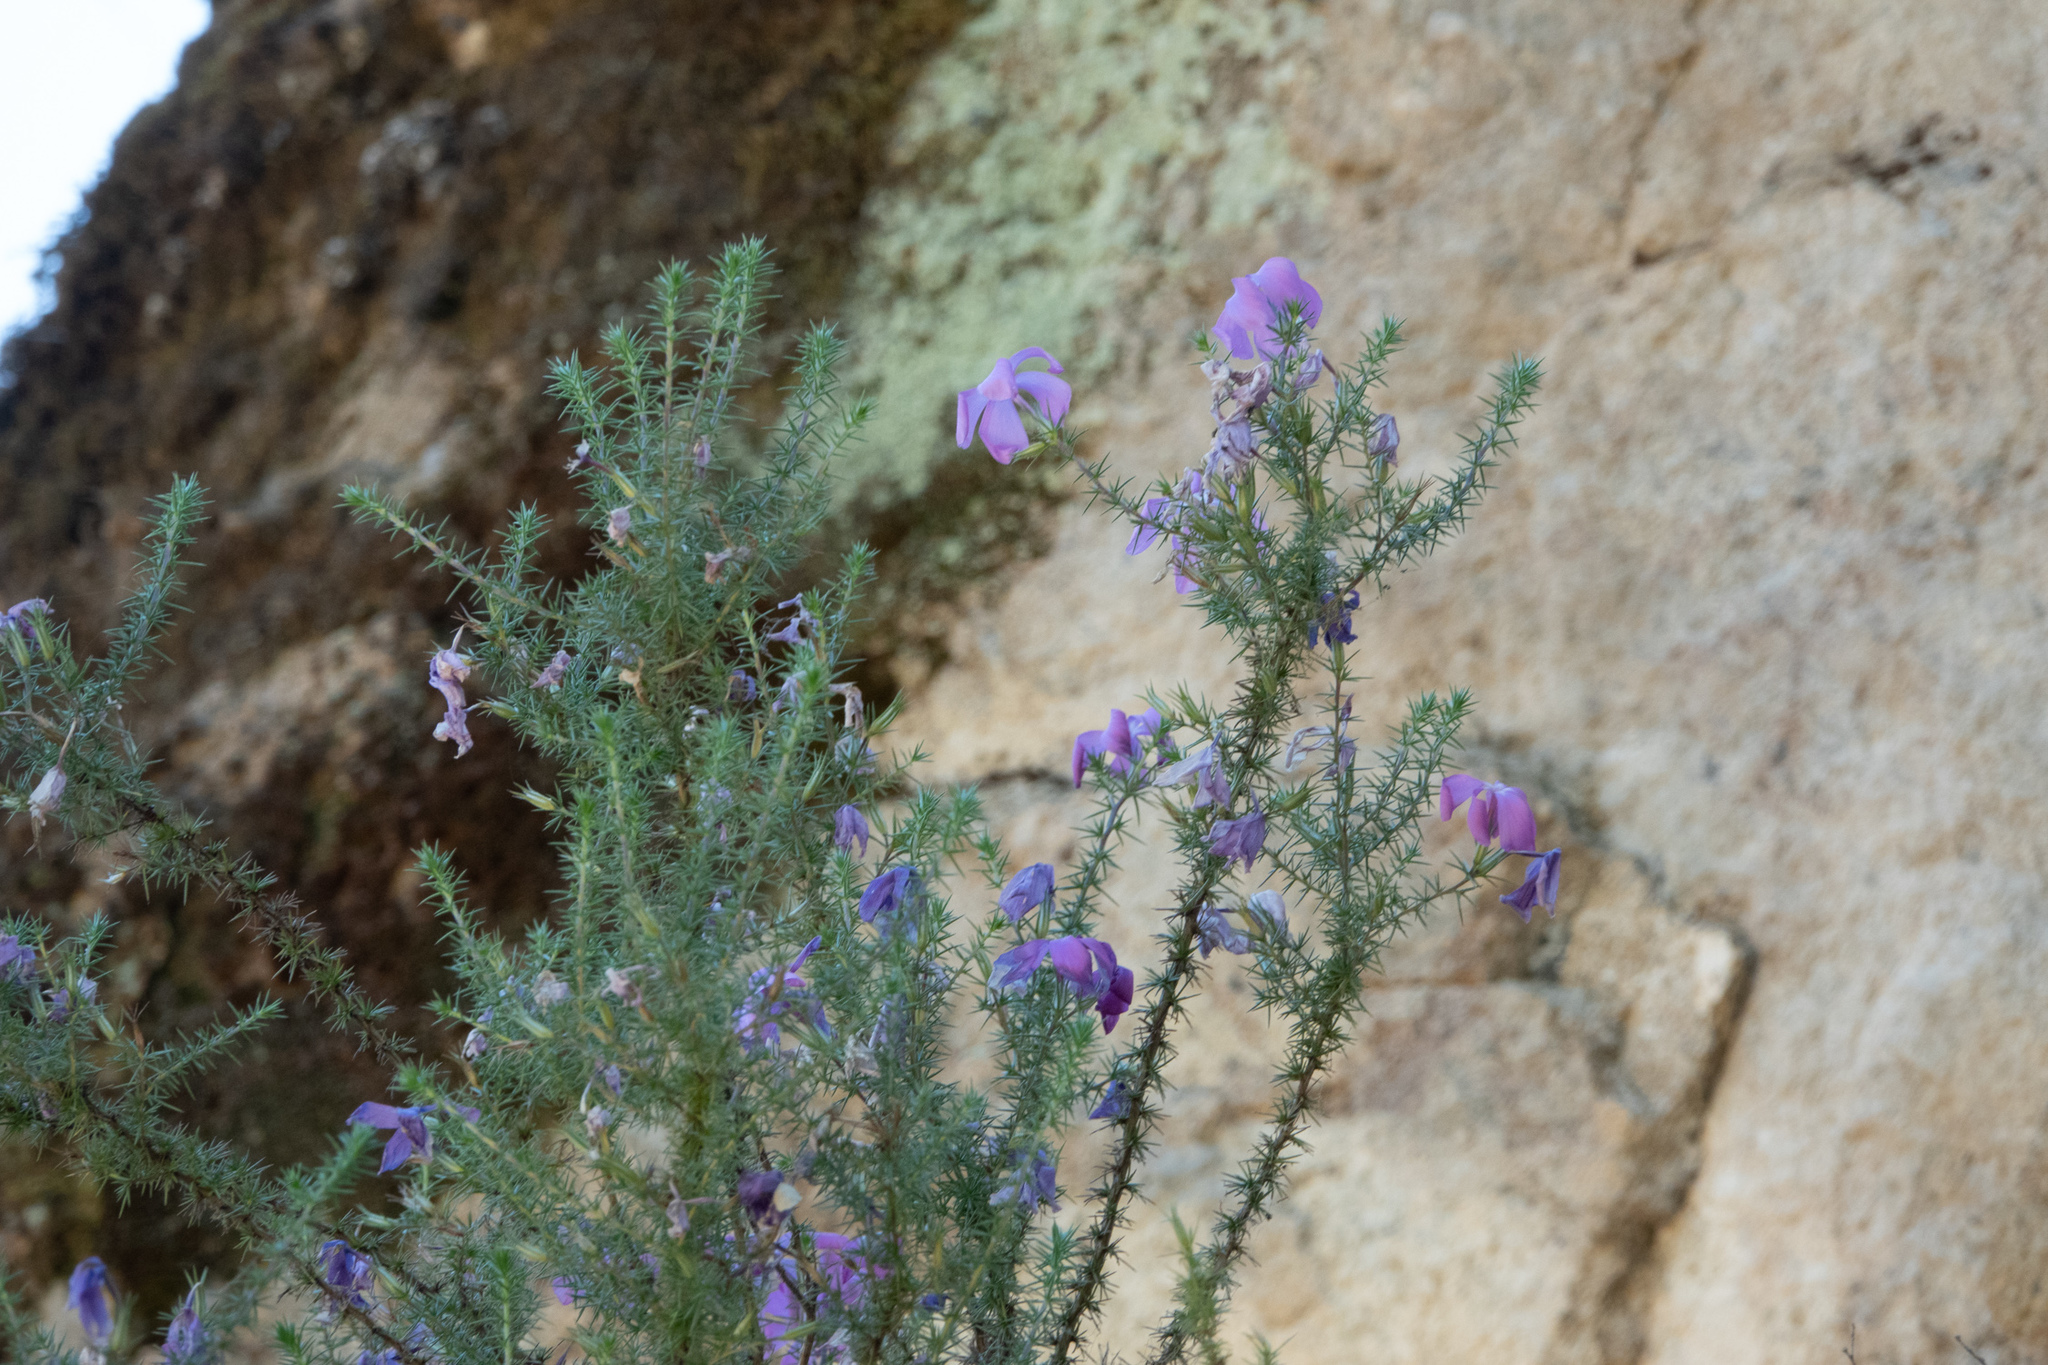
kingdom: Plantae
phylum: Tracheophyta
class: Magnoliopsida
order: Ericales
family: Polemoniaceae
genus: Linanthus
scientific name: Linanthus californicus
